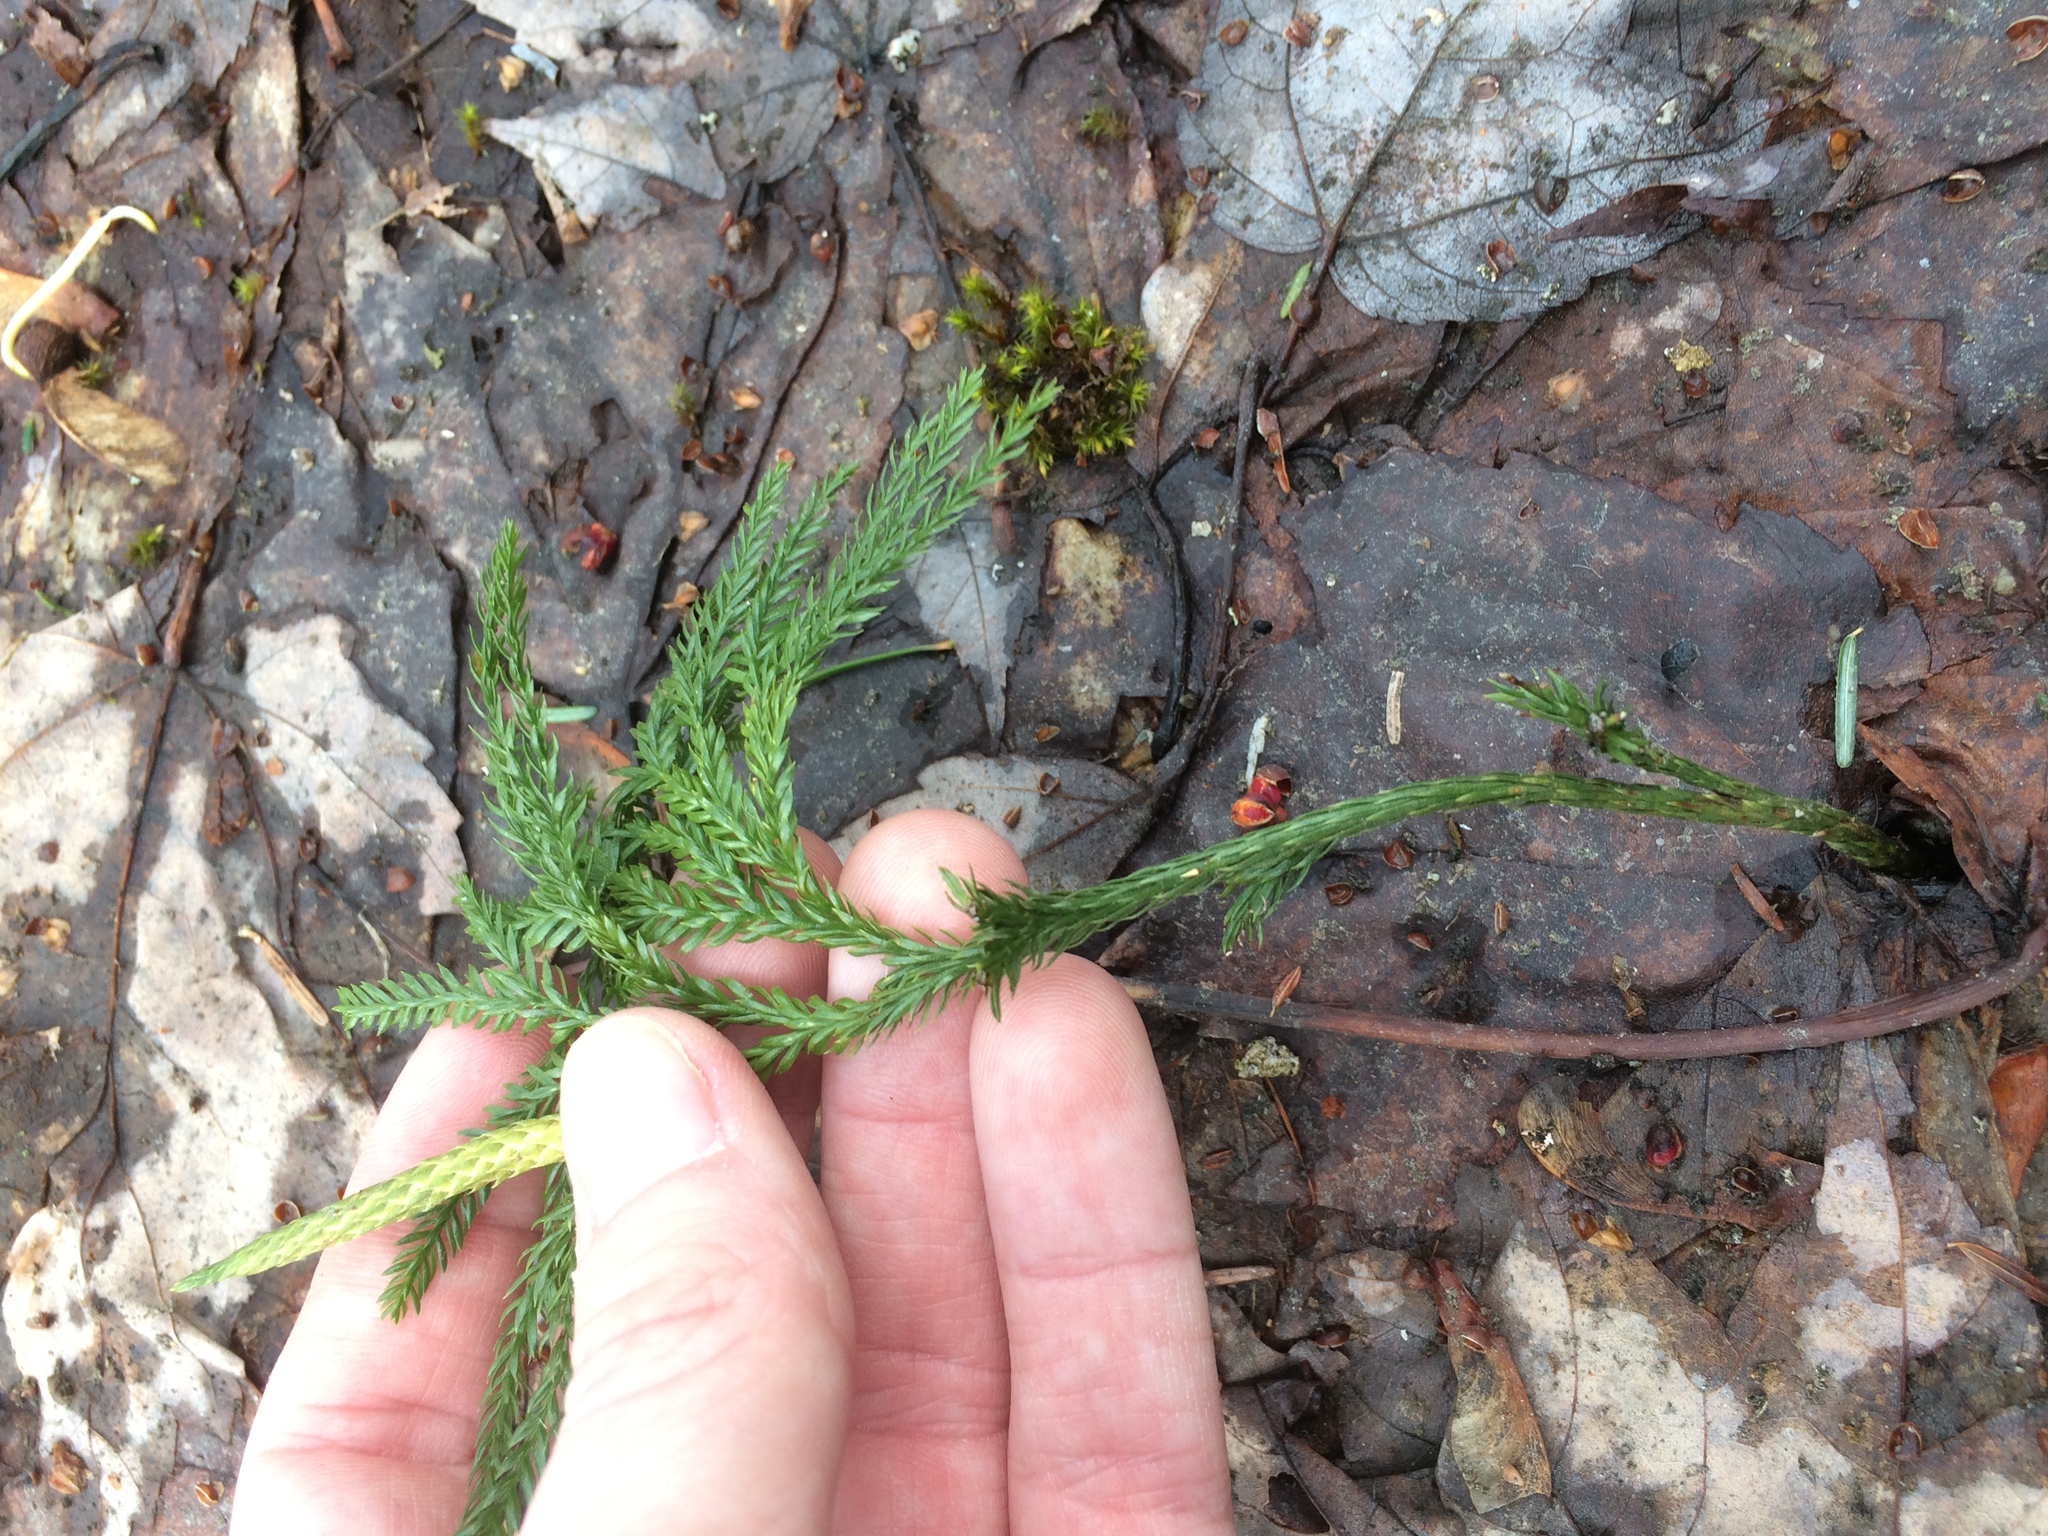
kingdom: Plantae
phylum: Tracheophyta
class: Lycopodiopsida
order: Lycopodiales
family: Lycopodiaceae
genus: Dendrolycopodium
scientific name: Dendrolycopodium obscurum
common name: Common ground-pine
